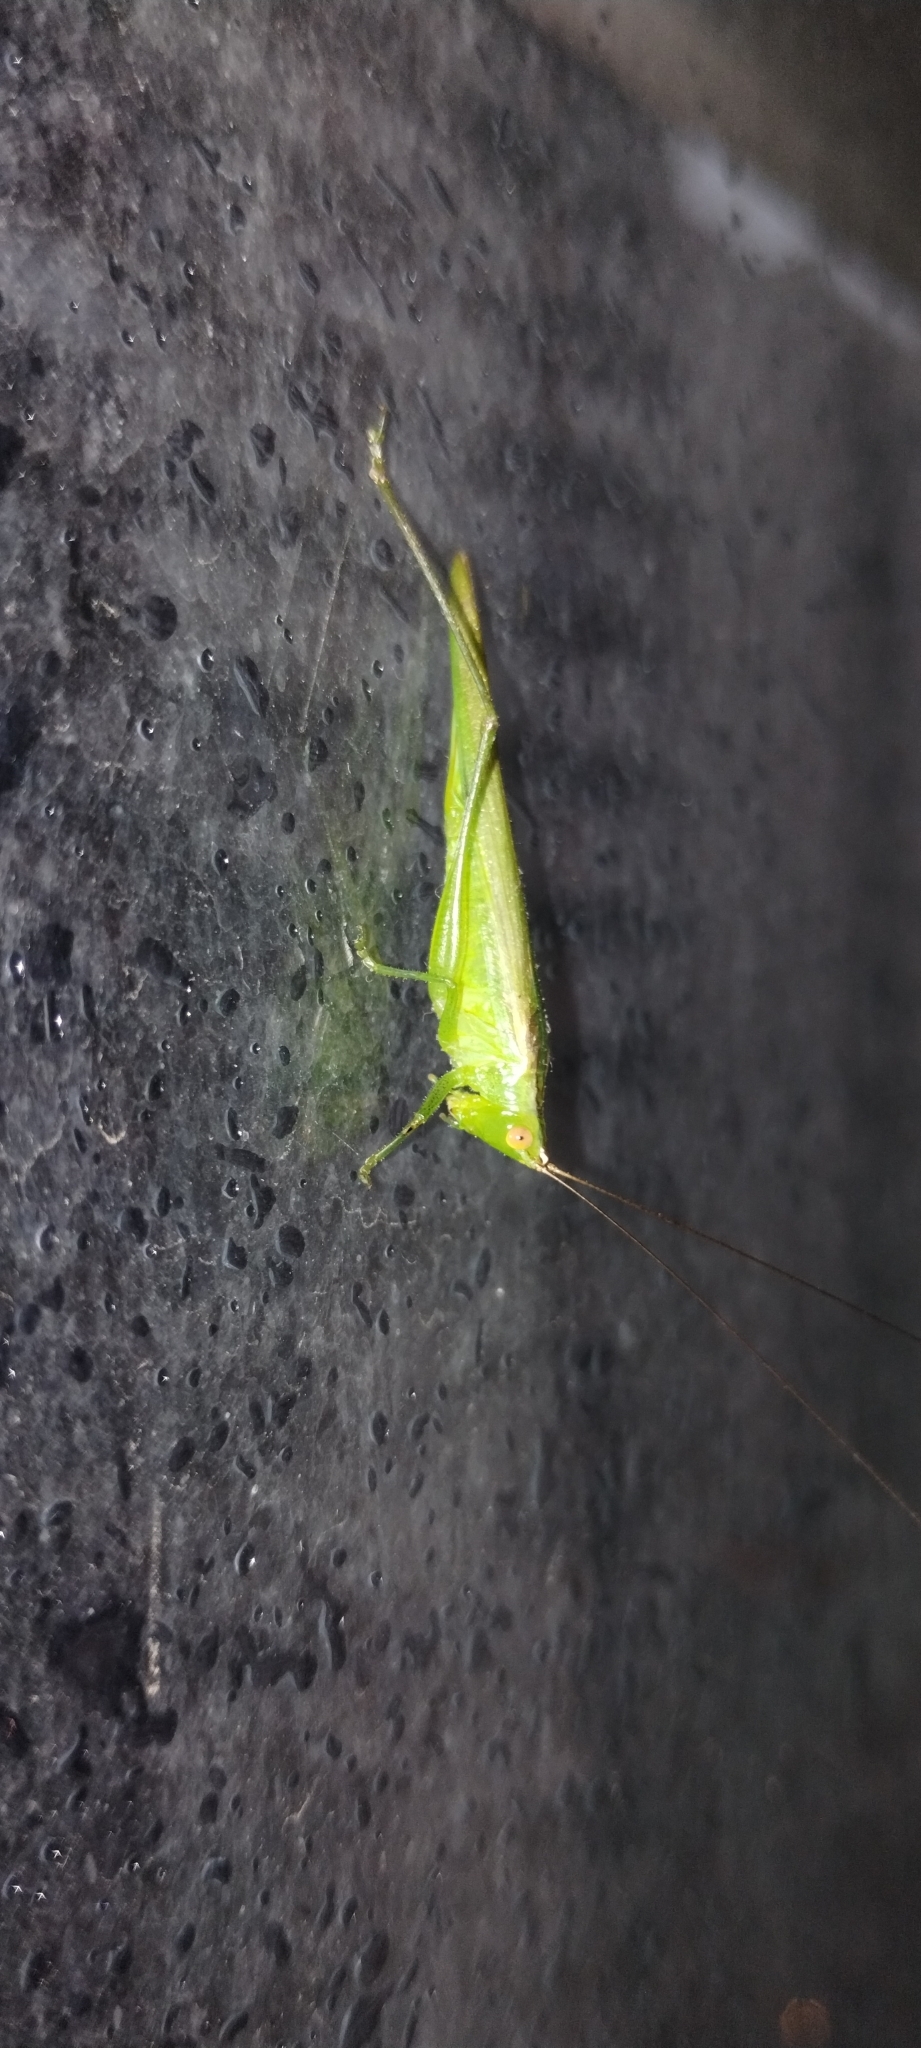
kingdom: Animalia
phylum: Arthropoda
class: Insecta
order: Orthoptera
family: Tettigoniidae
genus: Conocephalus
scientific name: Conocephalus longipes
